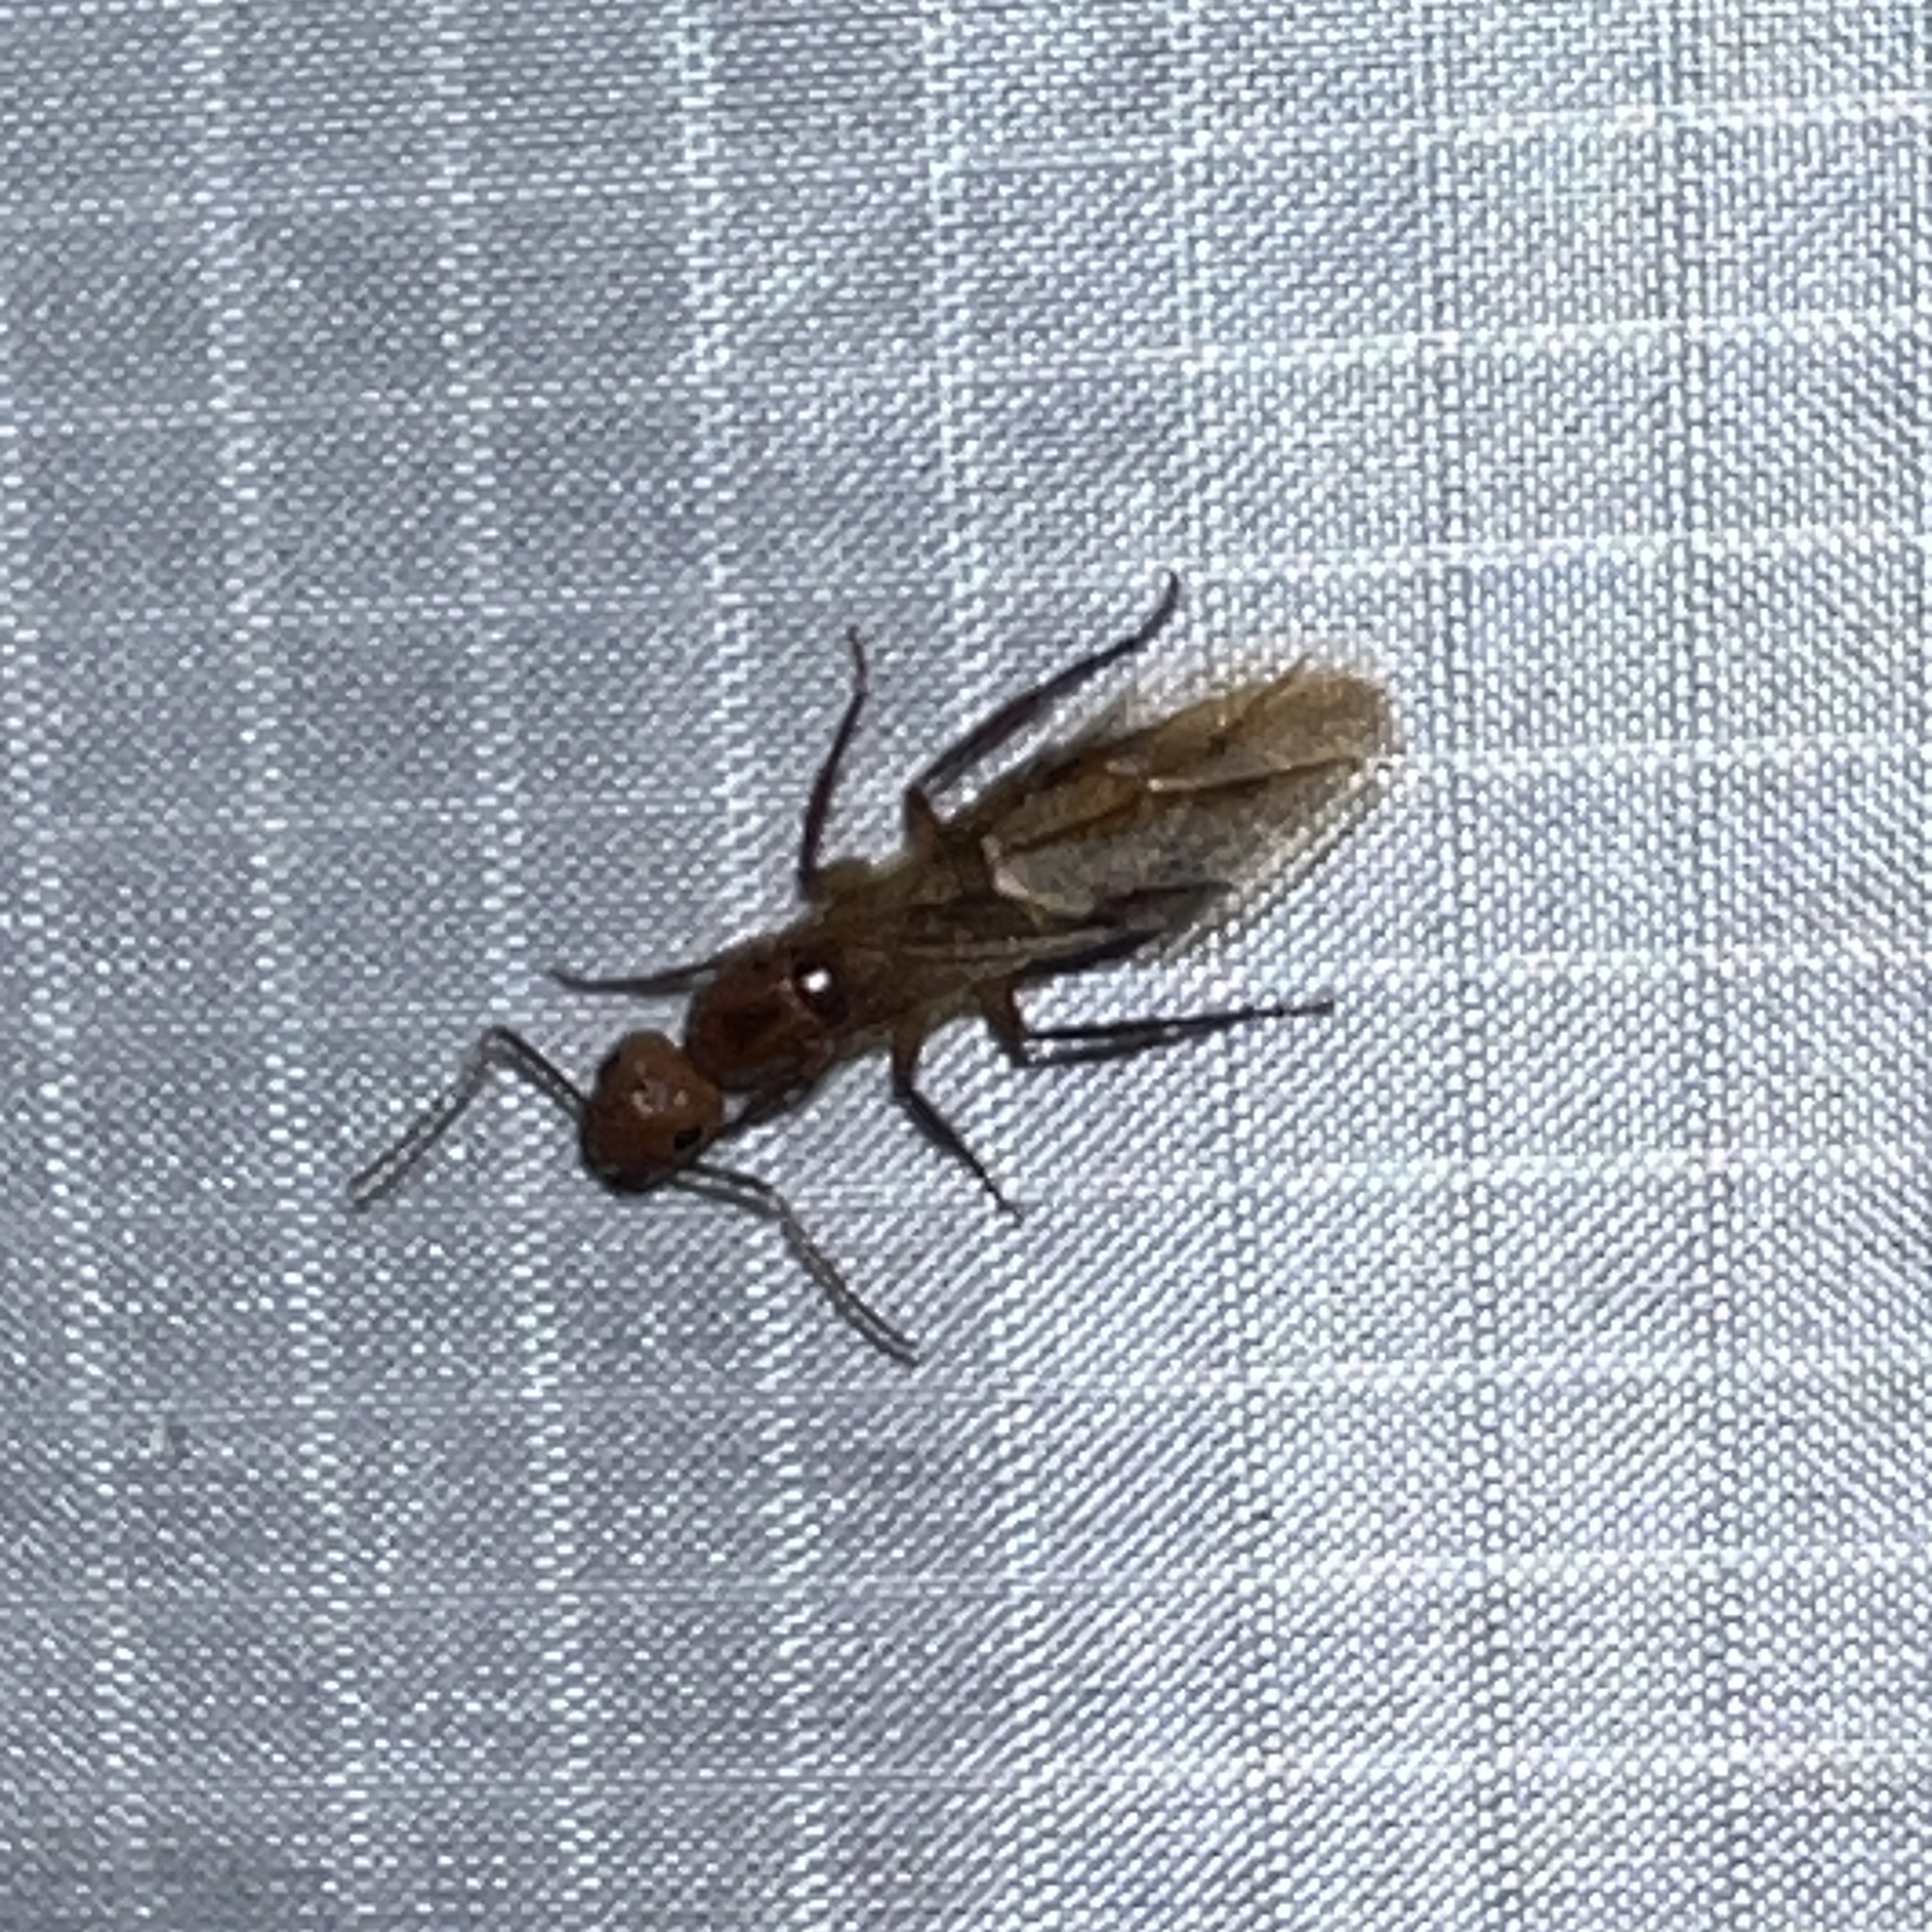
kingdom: Animalia
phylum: Arthropoda
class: Insecta
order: Hymenoptera
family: Formicidae
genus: Camponotus
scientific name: Camponotus variegatus
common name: Hawaiian carpenter ant
